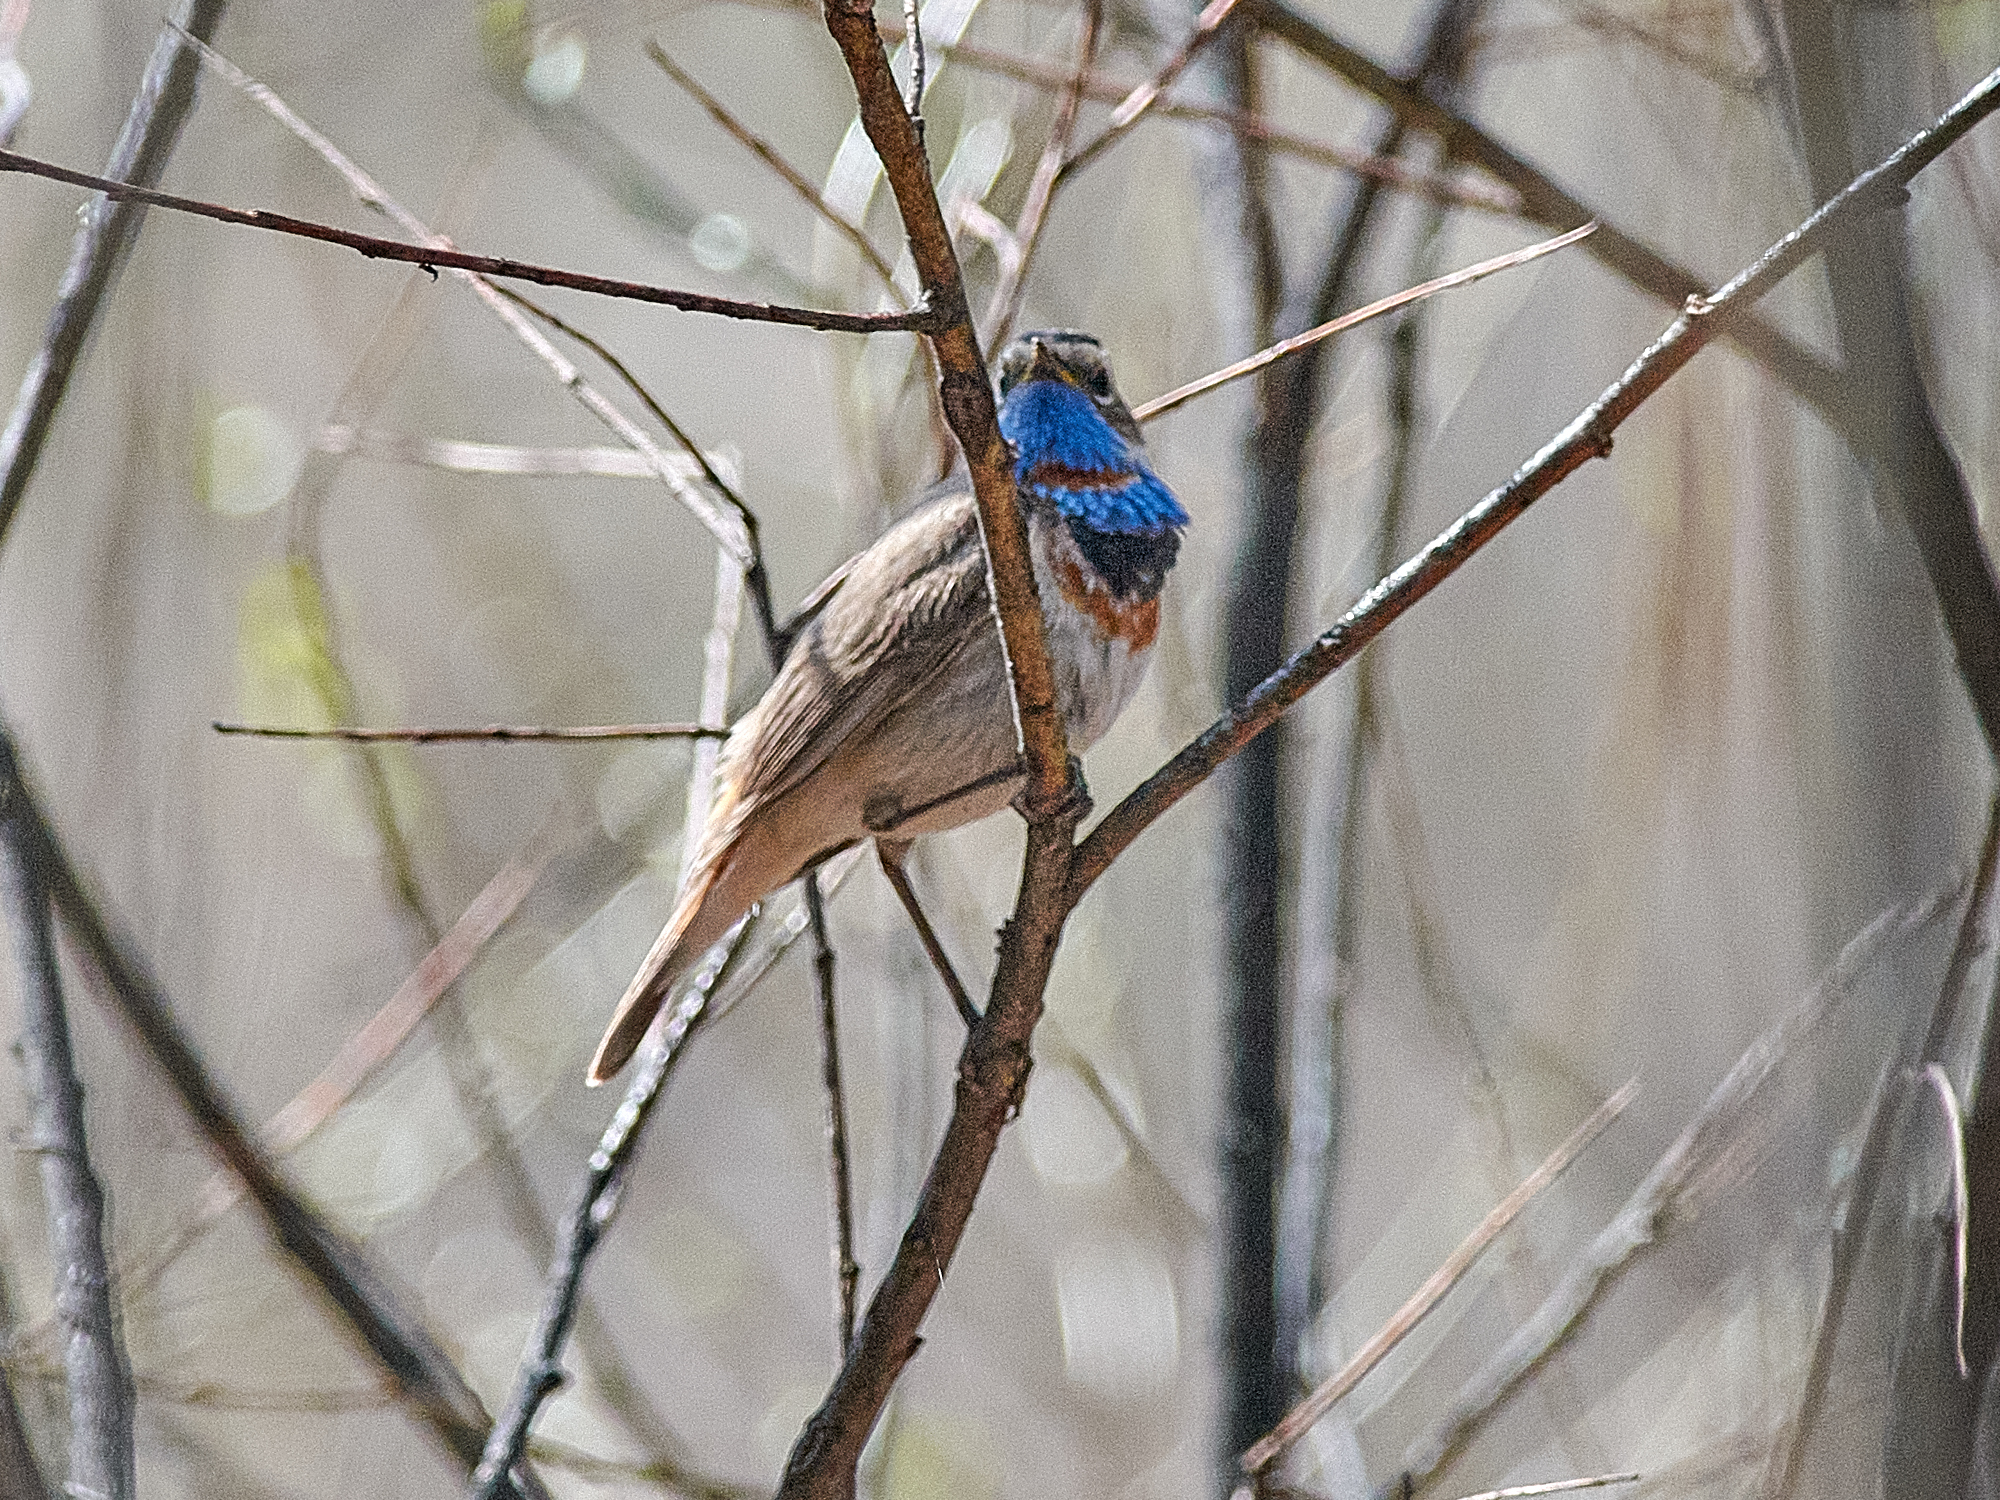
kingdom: Animalia
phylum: Chordata
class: Aves
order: Passeriformes
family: Muscicapidae
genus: Luscinia
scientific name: Luscinia svecica
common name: Bluethroat
